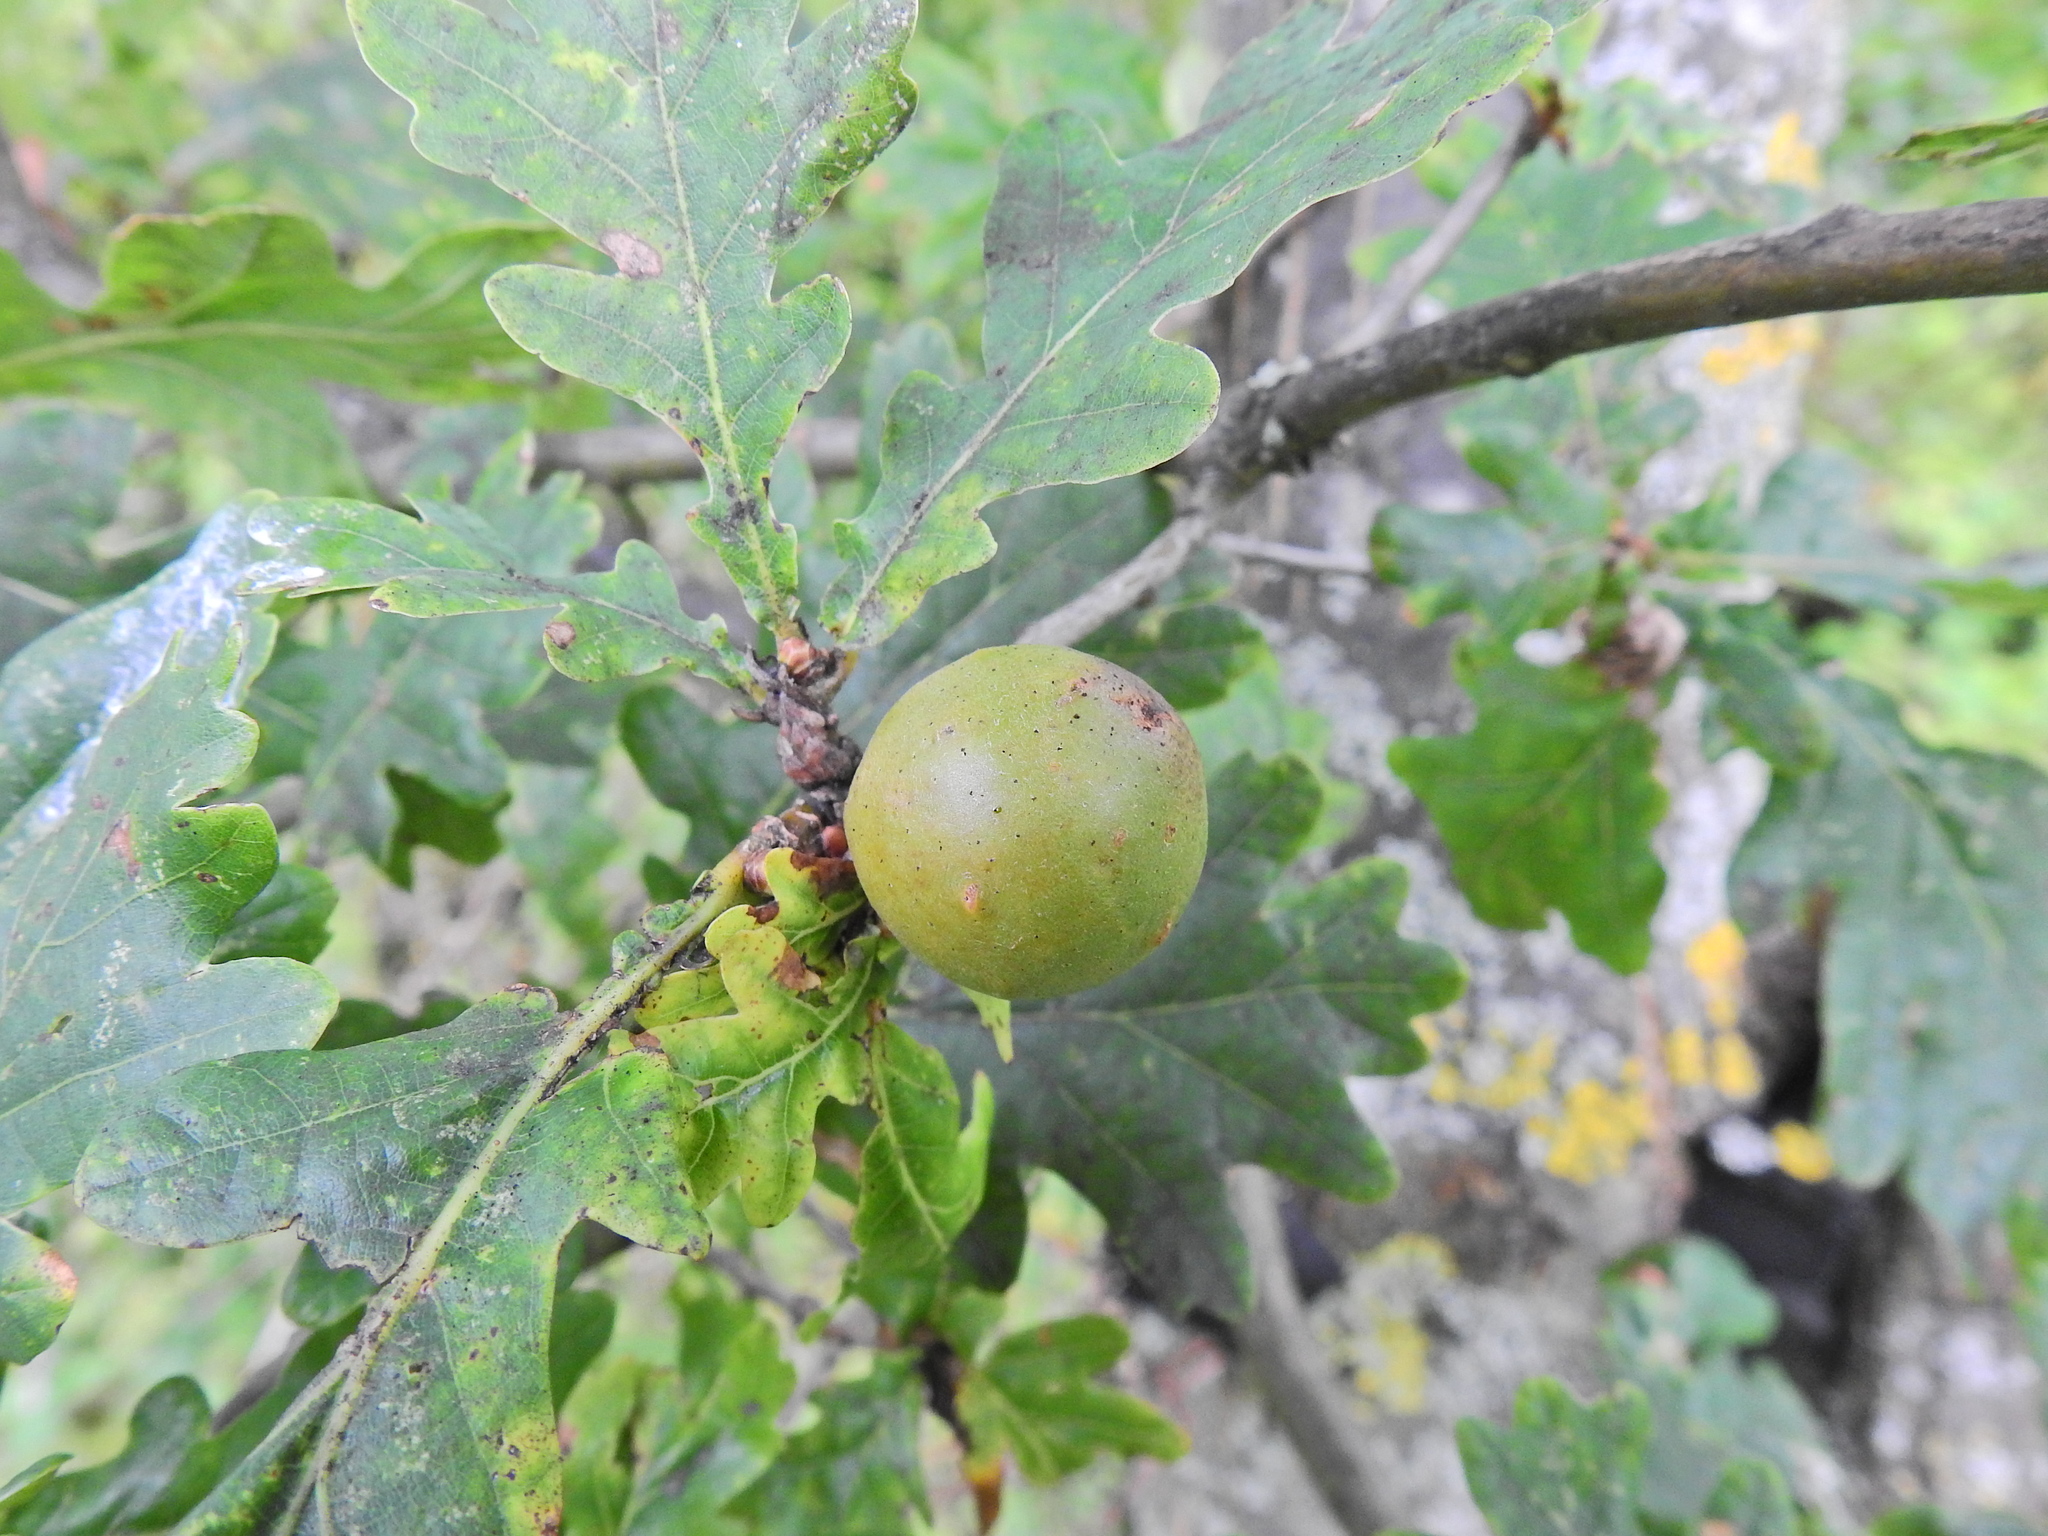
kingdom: Animalia
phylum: Arthropoda
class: Insecta
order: Hymenoptera
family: Cynipidae
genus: Andricus
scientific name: Andricus kollari
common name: Marble gall
